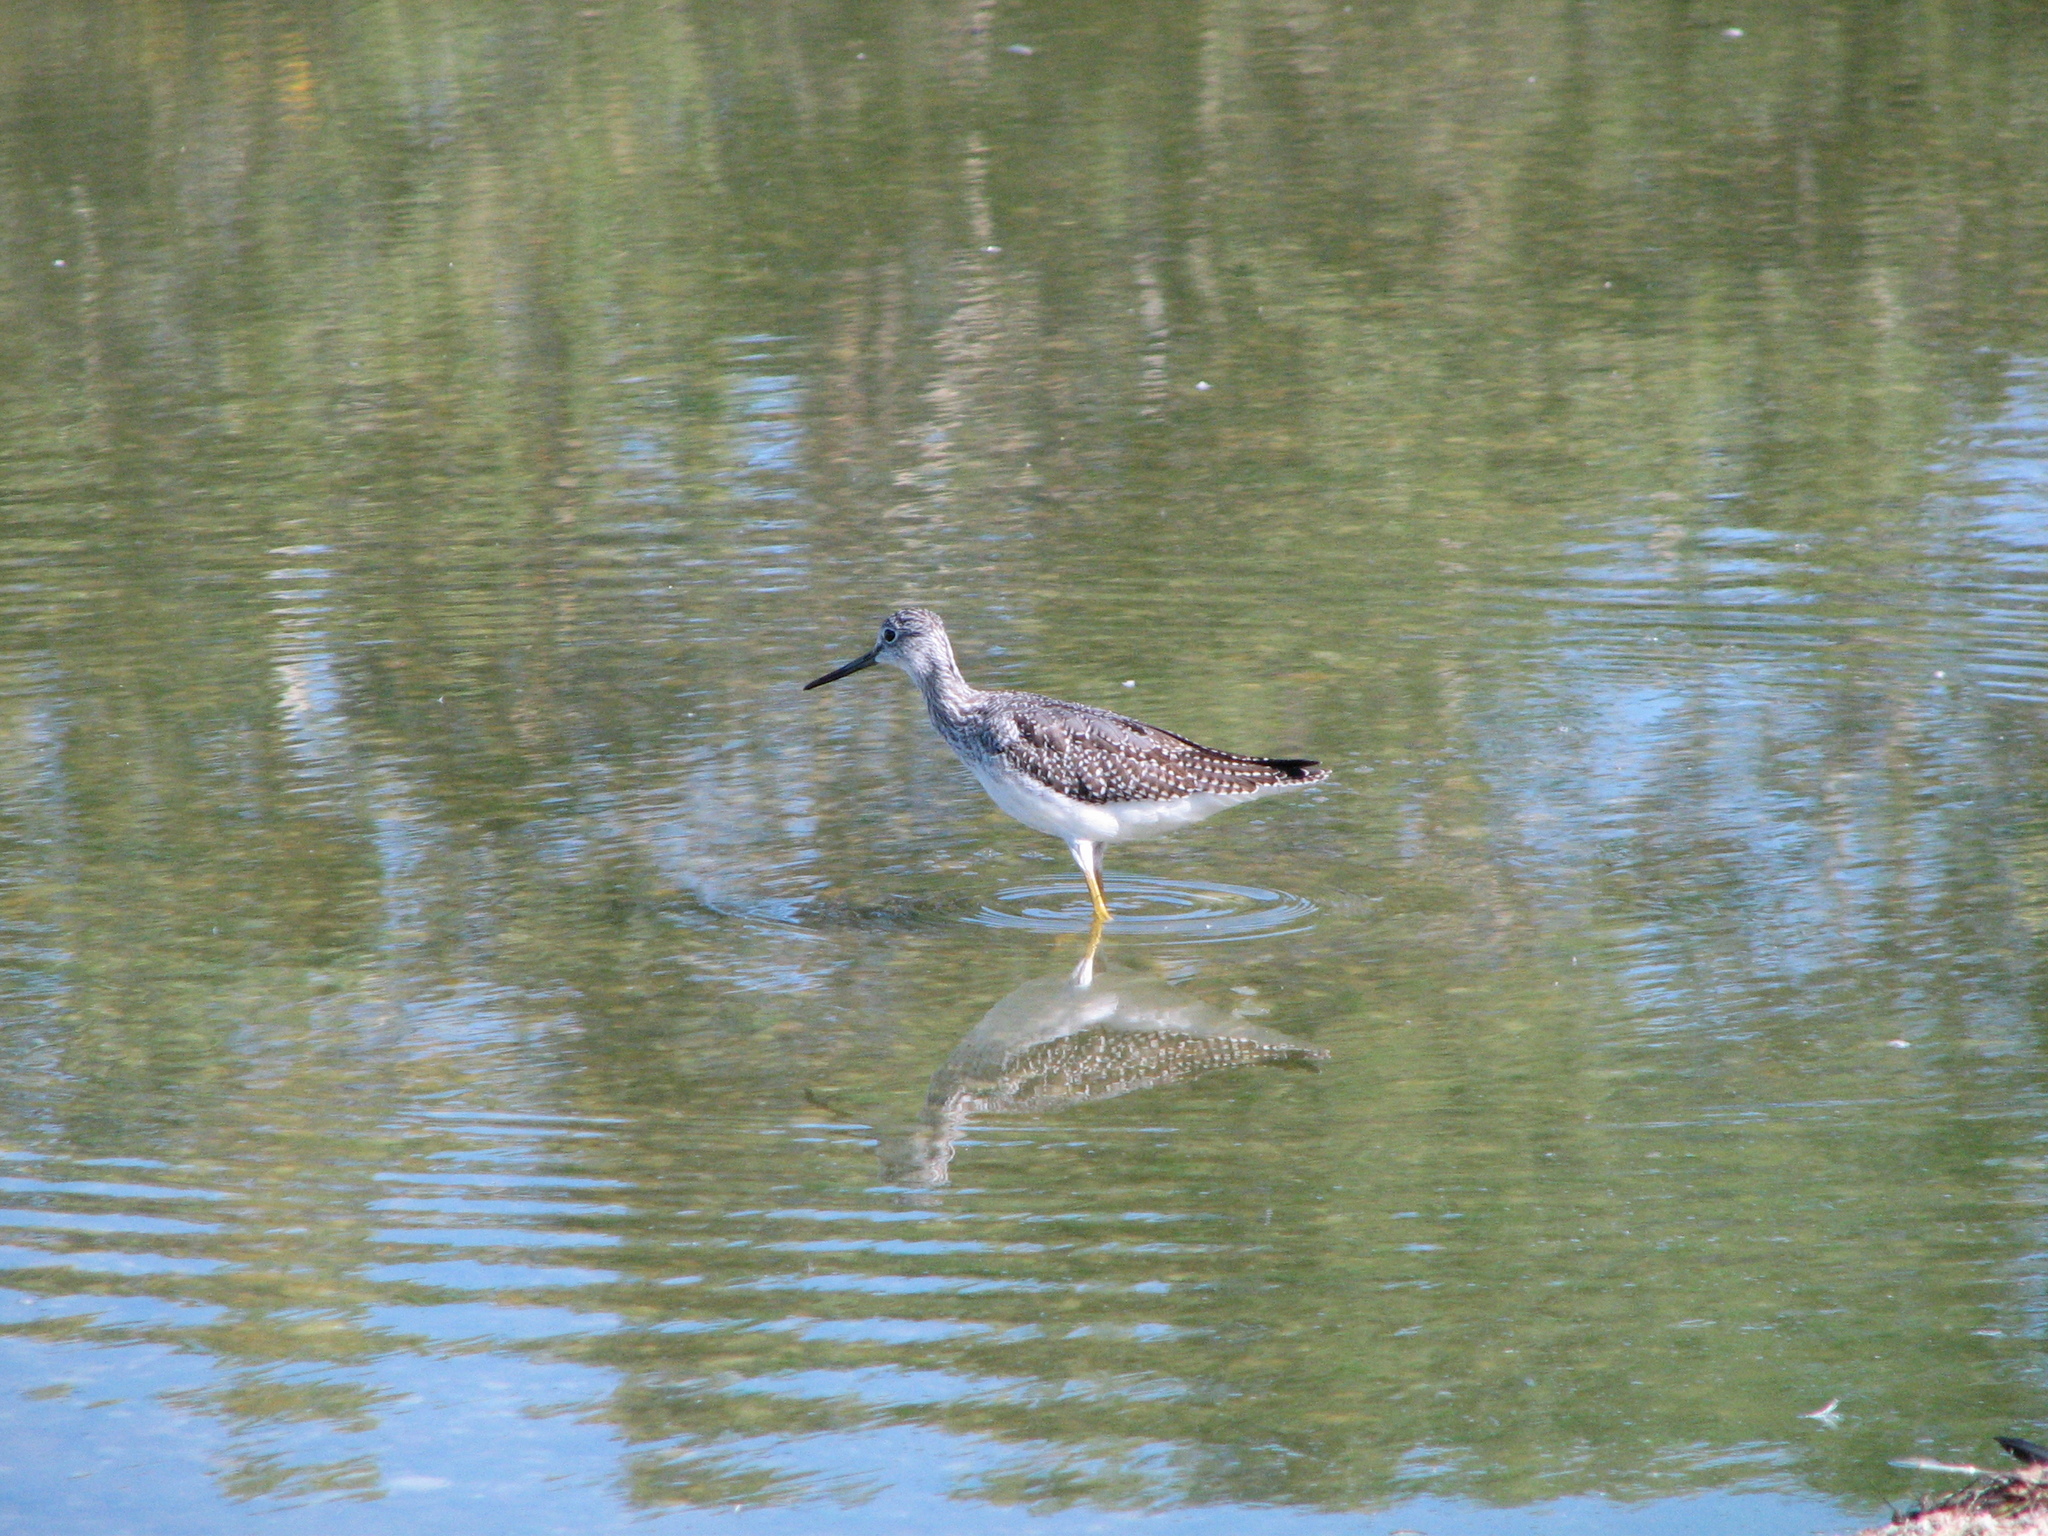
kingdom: Animalia
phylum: Chordata
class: Aves
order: Charadriiformes
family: Scolopacidae
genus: Tringa
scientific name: Tringa flavipes
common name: Lesser yellowlegs
